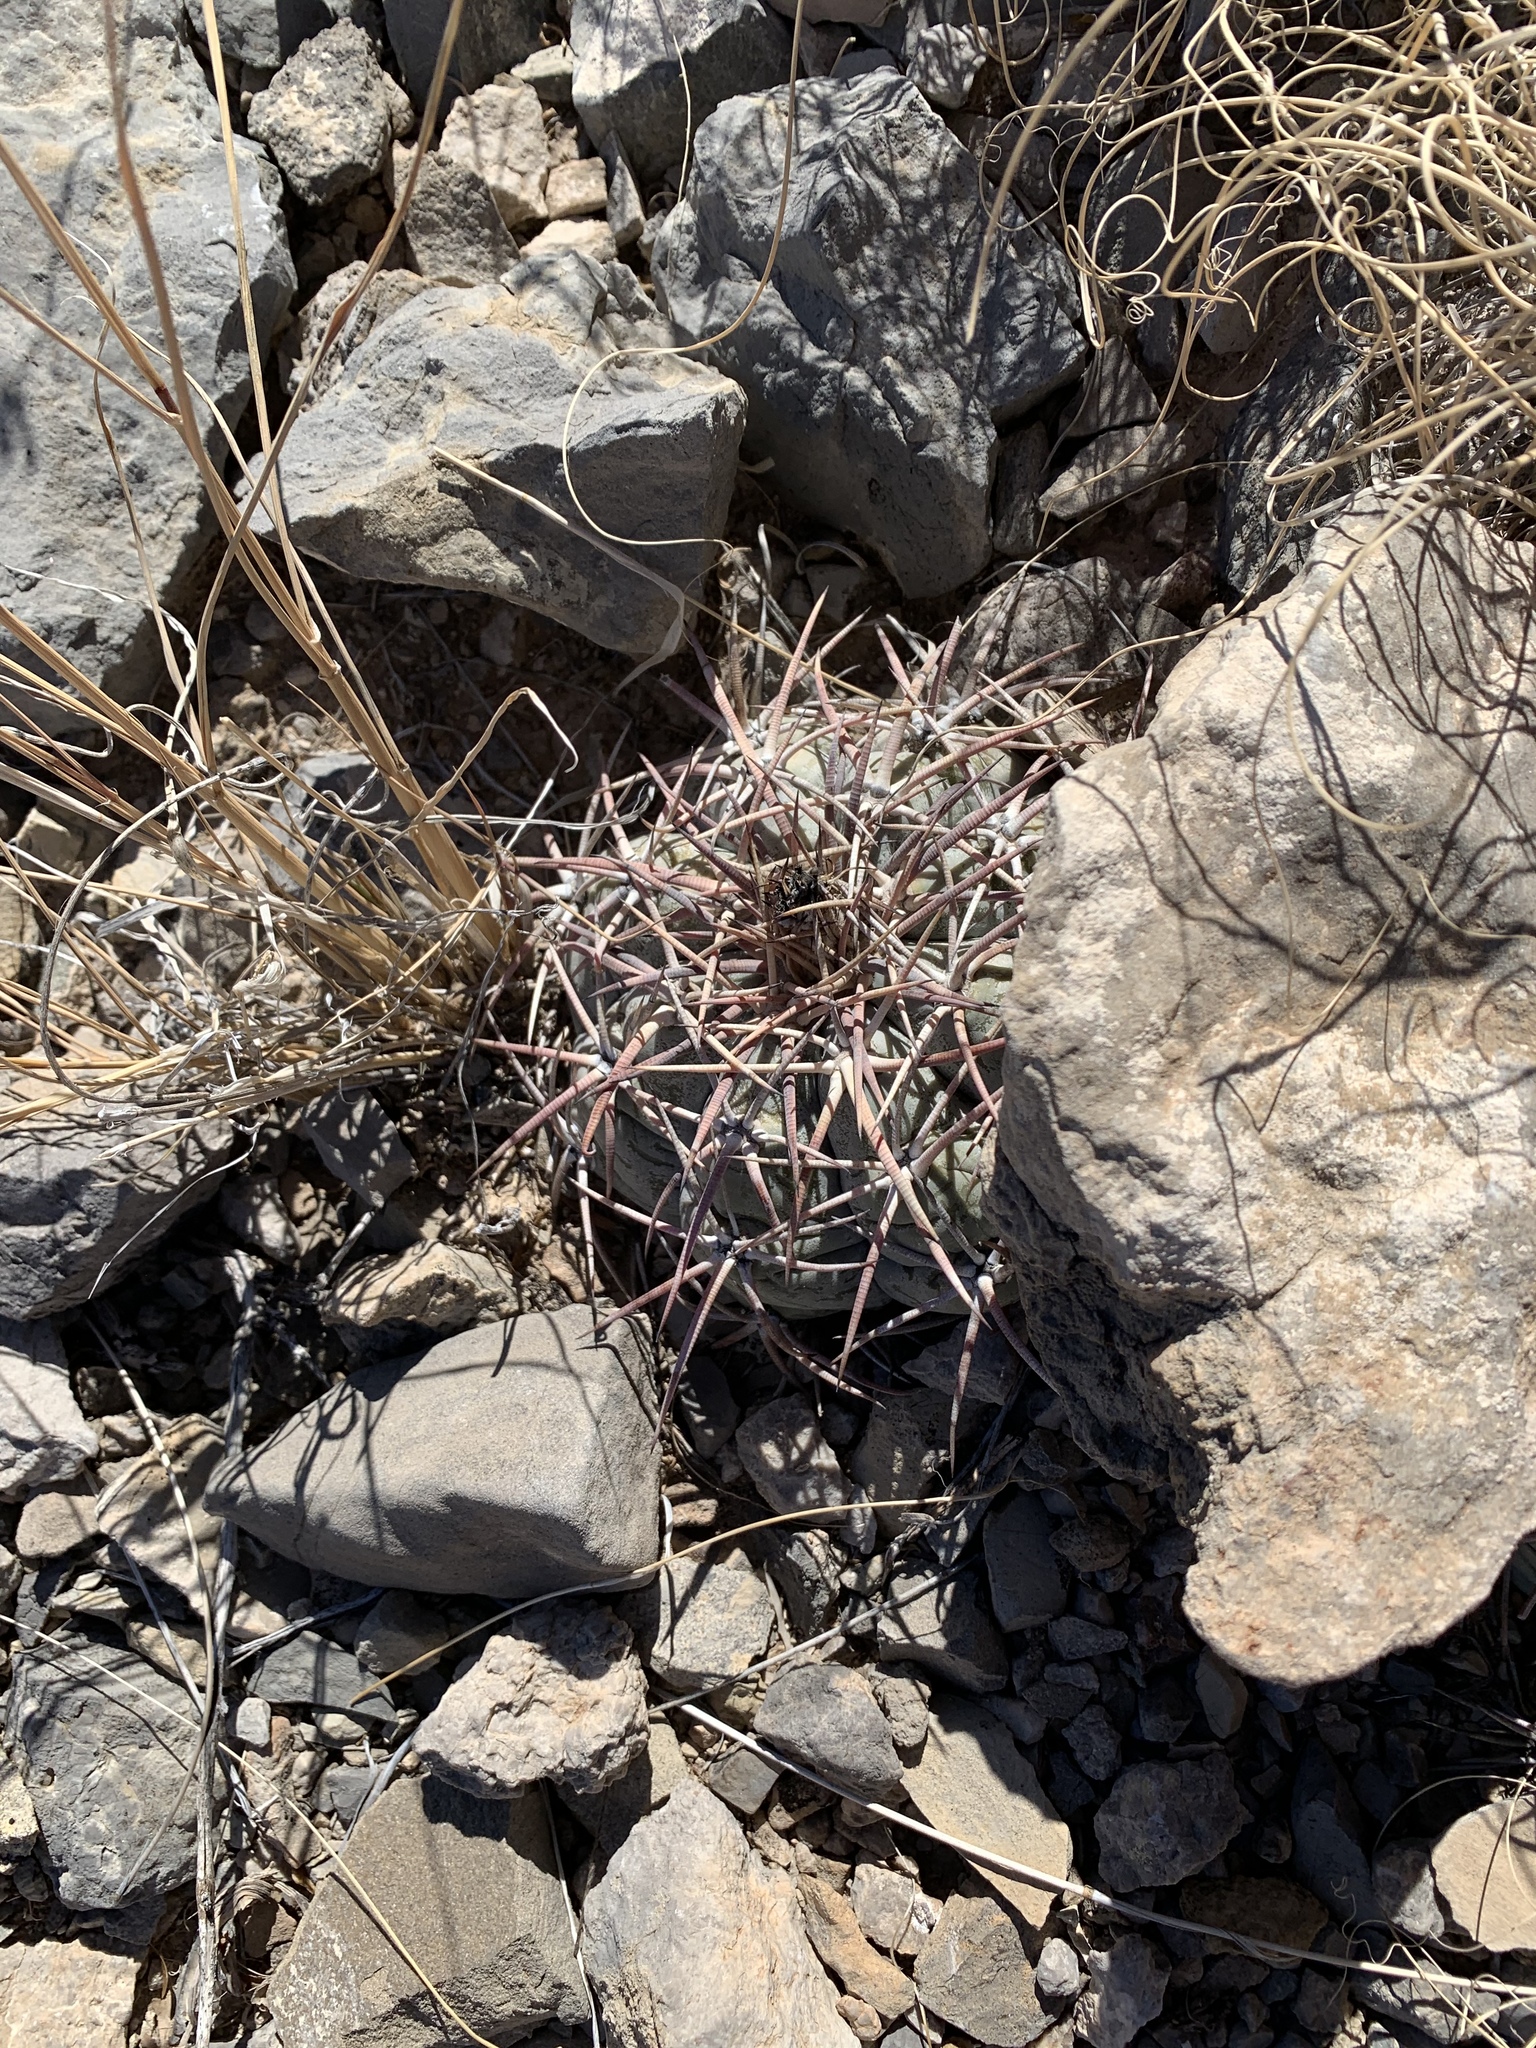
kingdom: Plantae
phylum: Tracheophyta
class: Magnoliopsida
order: Caryophyllales
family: Cactaceae
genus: Echinocactus
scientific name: Echinocactus horizonthalonius
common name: Devilshead
